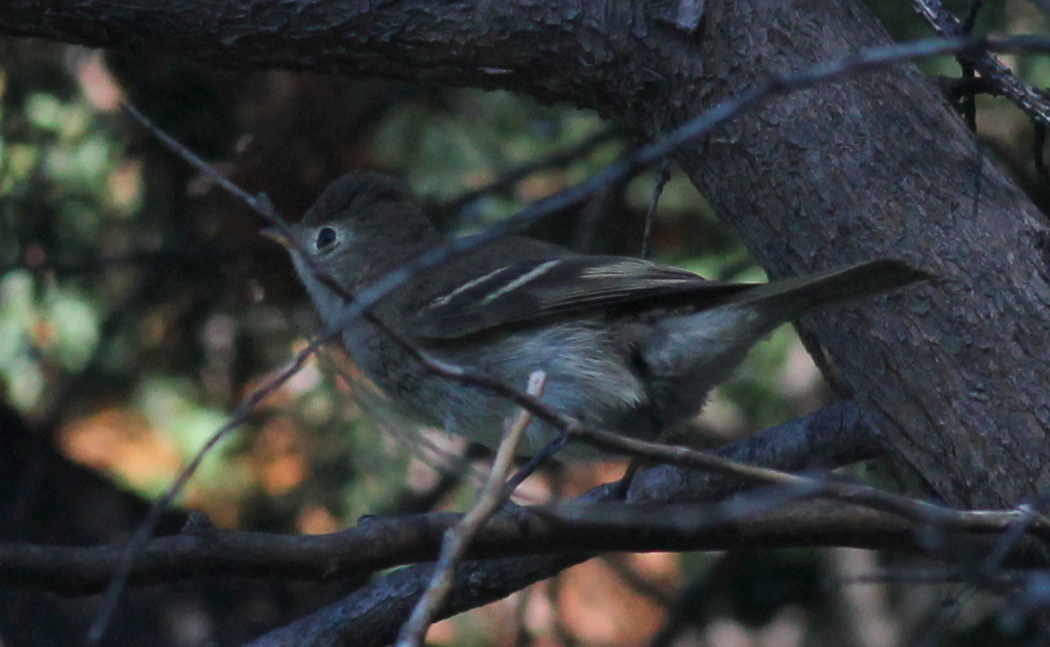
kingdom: Animalia
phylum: Chordata
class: Aves
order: Passeriformes
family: Tyrannidae
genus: Elaenia
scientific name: Elaenia albiceps
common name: White-crested elaenia
